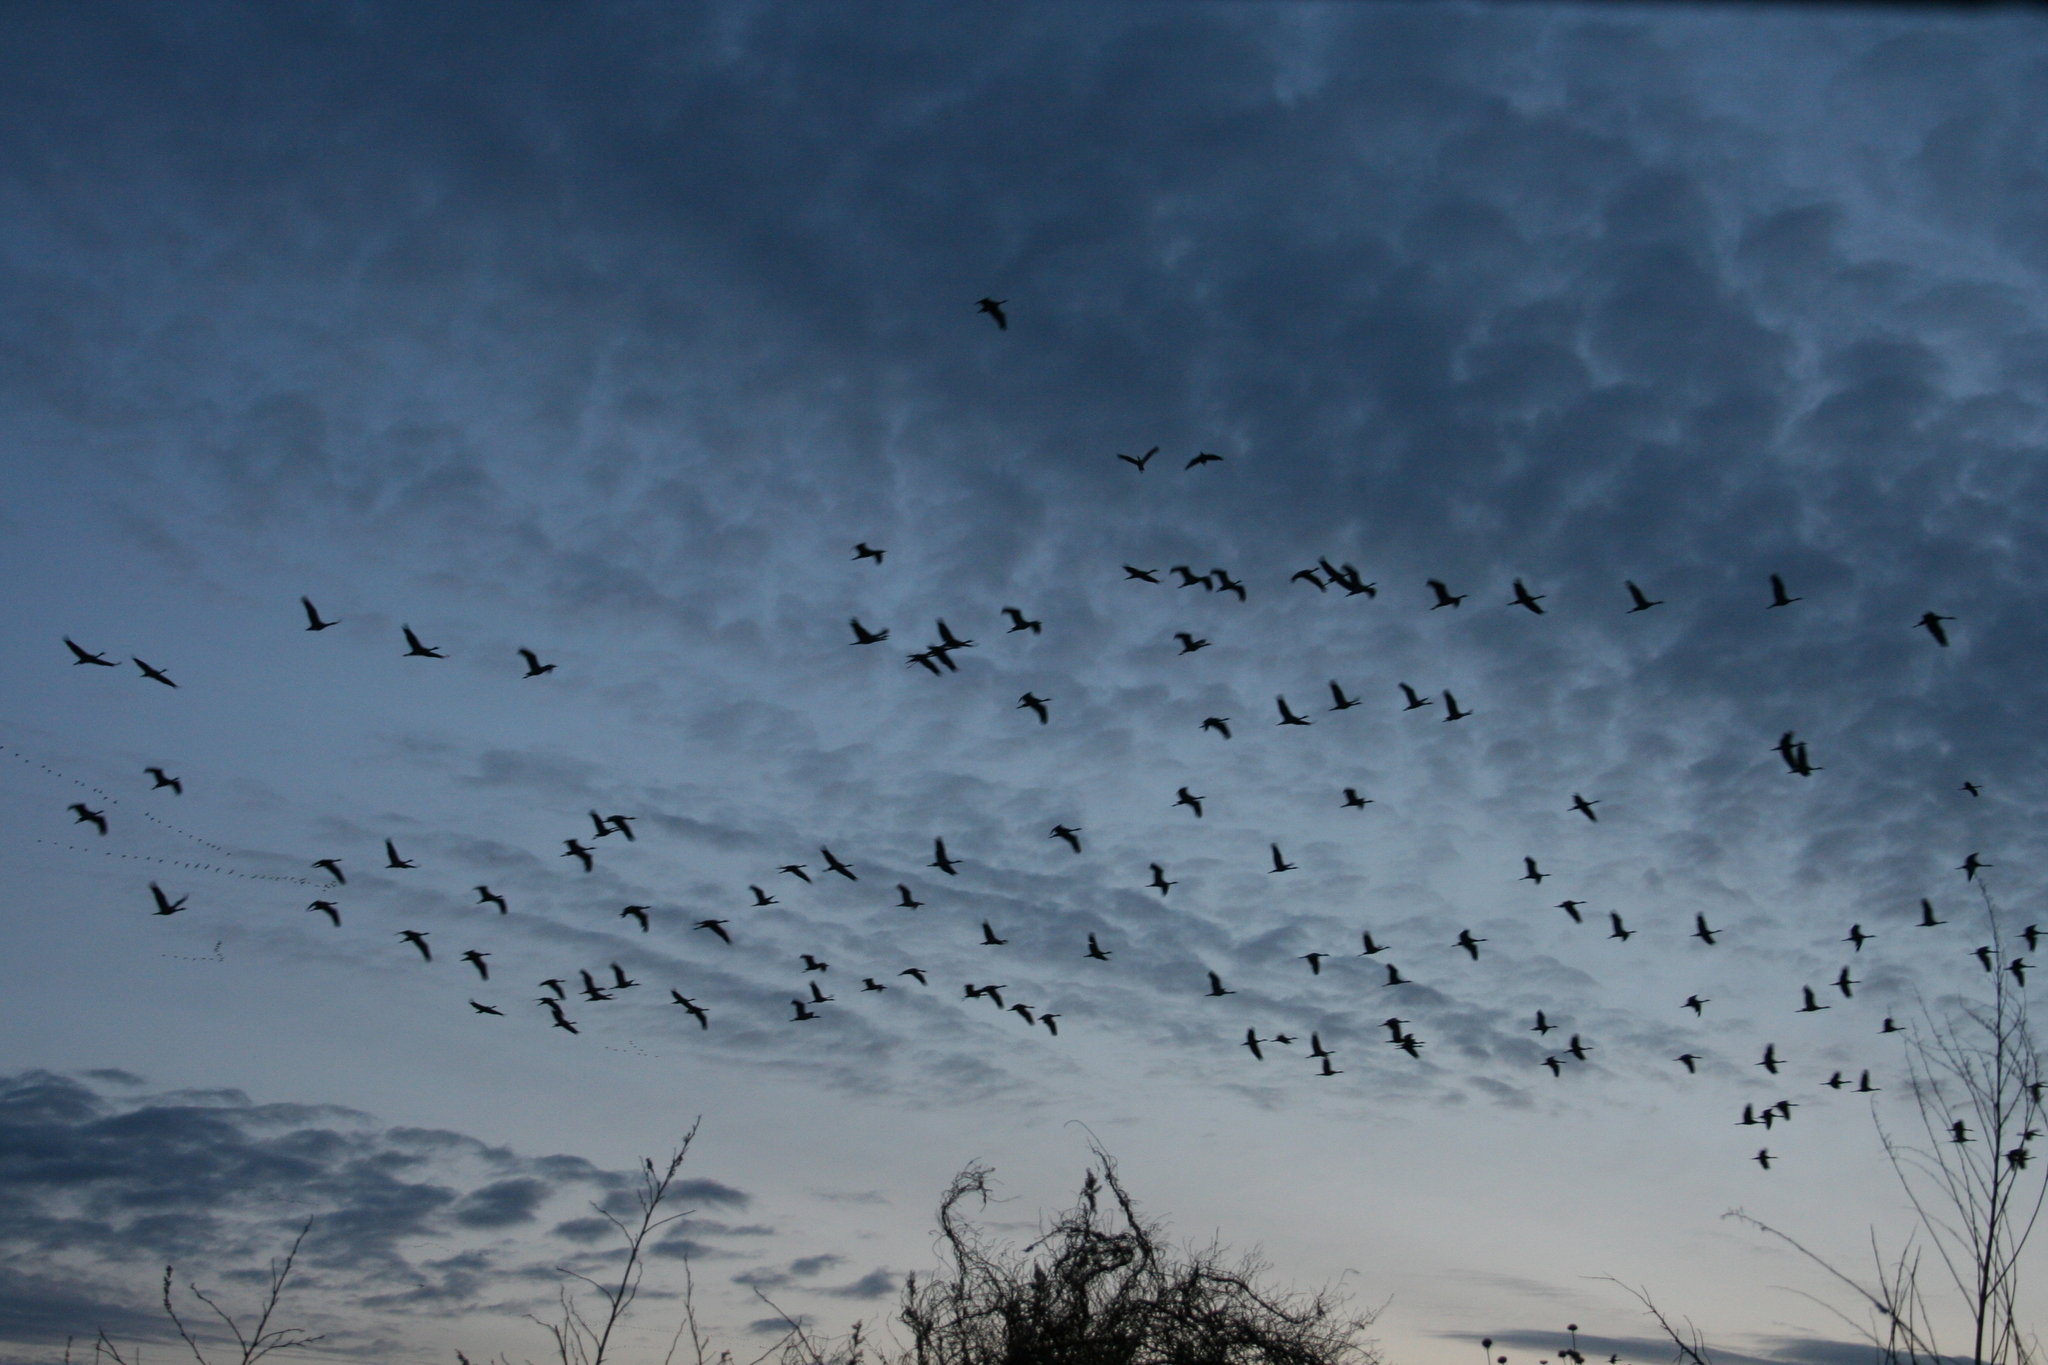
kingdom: Animalia
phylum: Chordata
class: Aves
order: Gruiformes
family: Gruidae
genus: Grus
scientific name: Grus canadensis
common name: Sandhill crane
